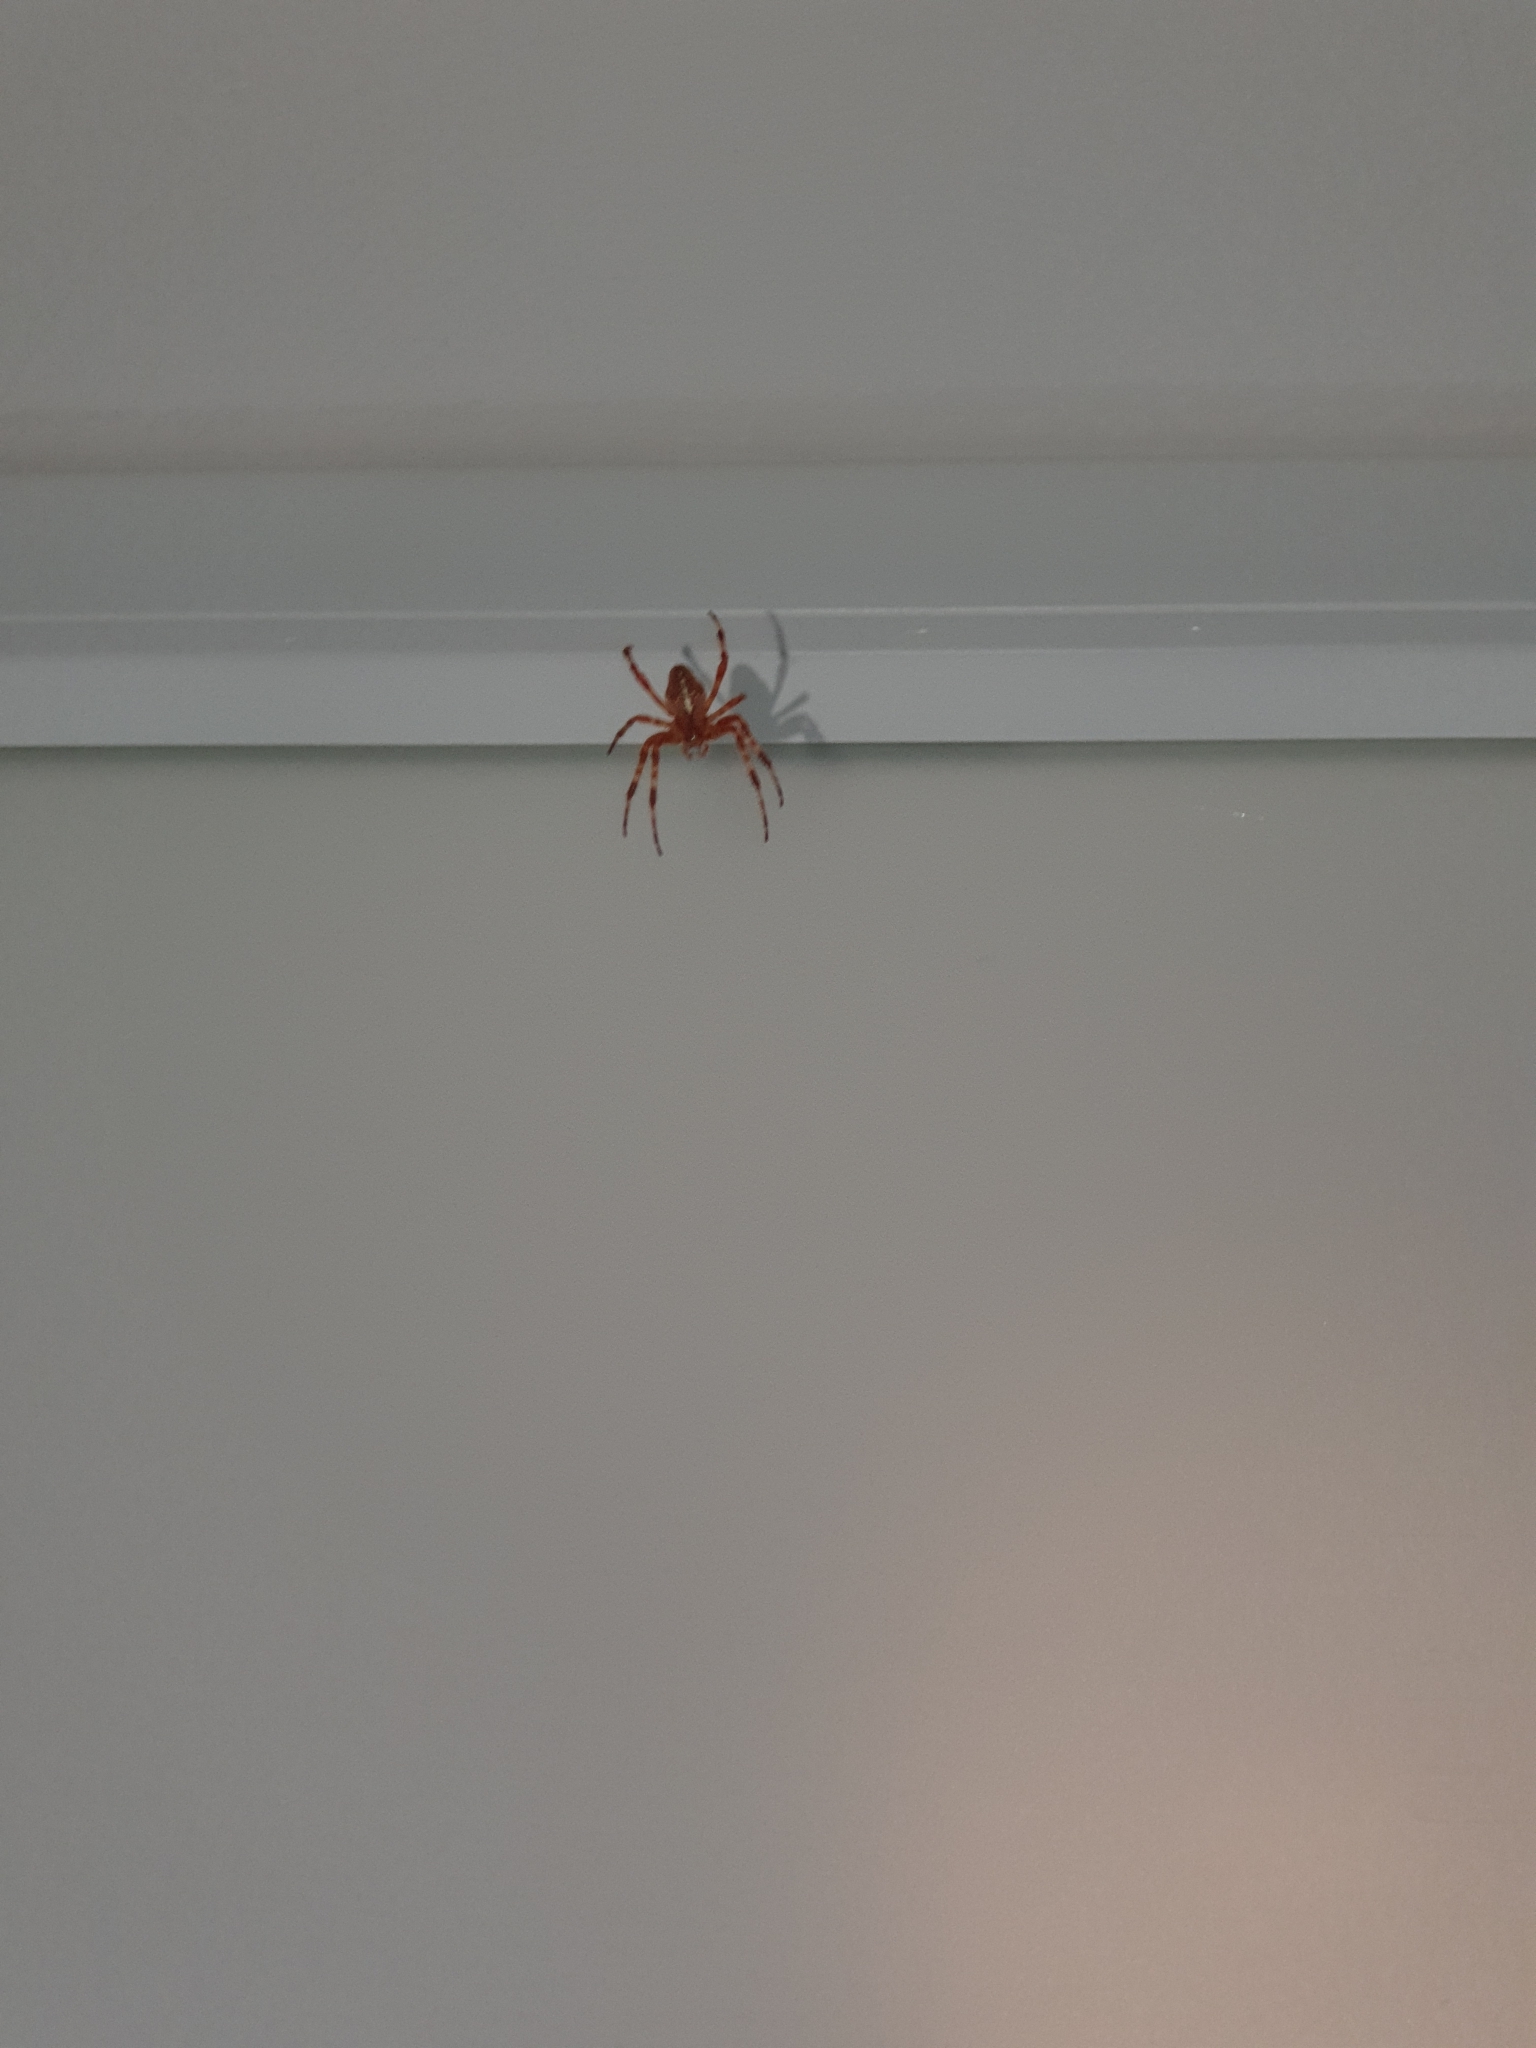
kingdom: Animalia
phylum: Arthropoda
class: Arachnida
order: Araneae
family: Araneidae
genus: Araneus
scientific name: Araneus diadematus
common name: Cross orbweaver
